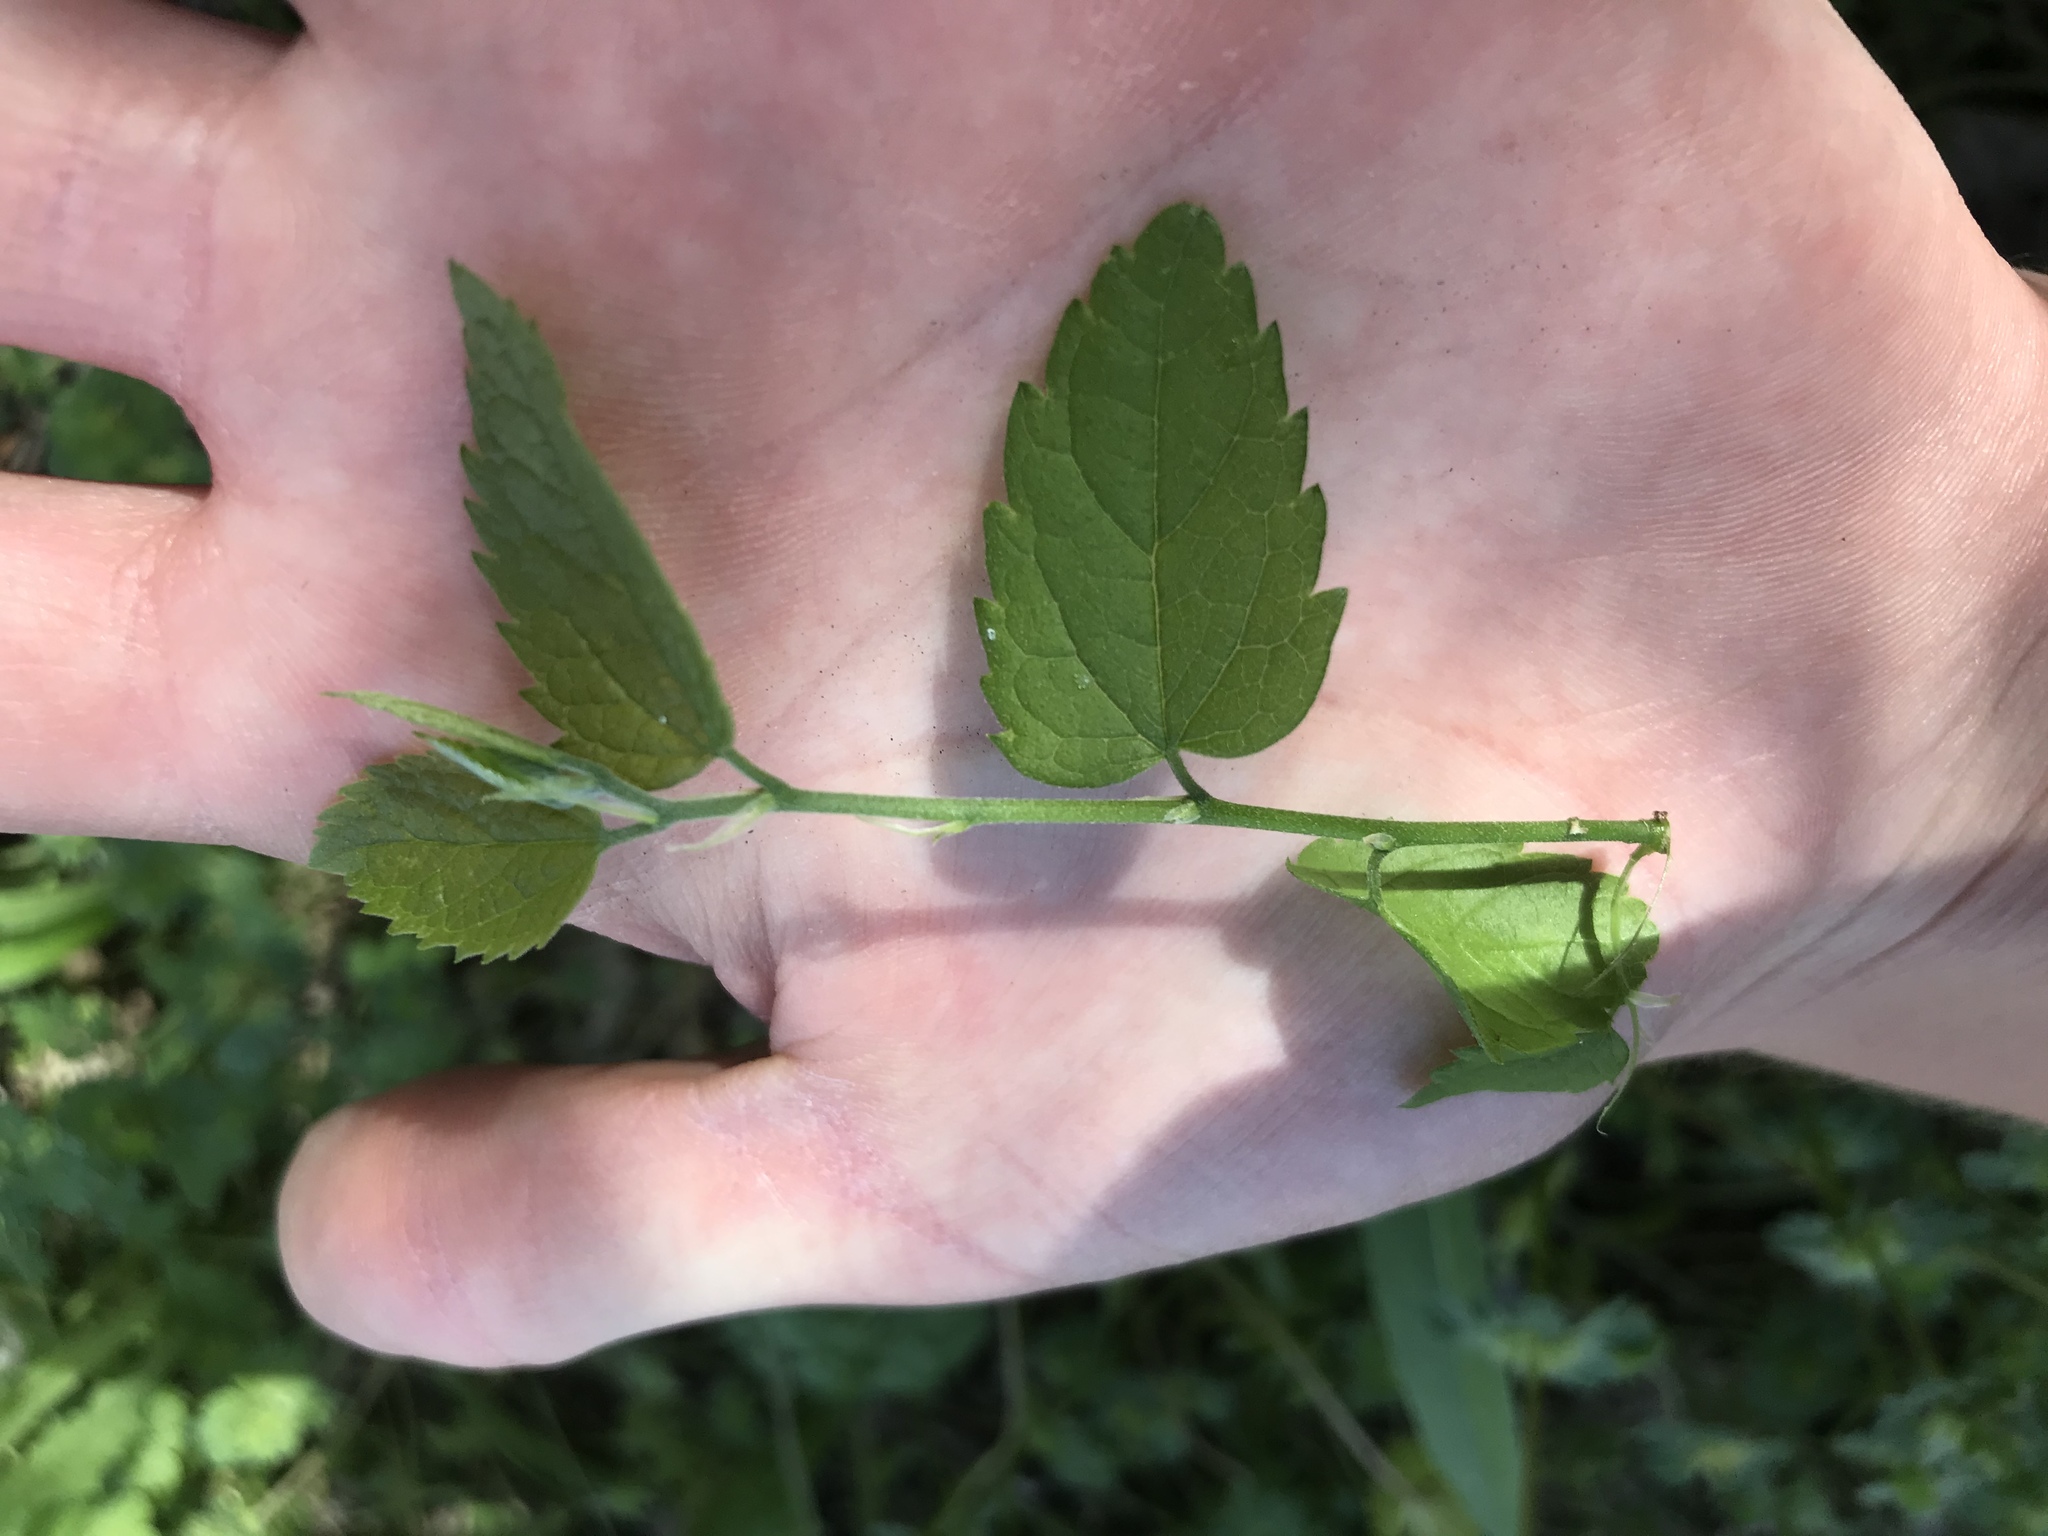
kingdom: Plantae
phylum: Tracheophyta
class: Magnoliopsida
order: Rosales
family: Cannabaceae
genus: Celtis
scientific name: Celtis laevigata
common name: Sugarberry
